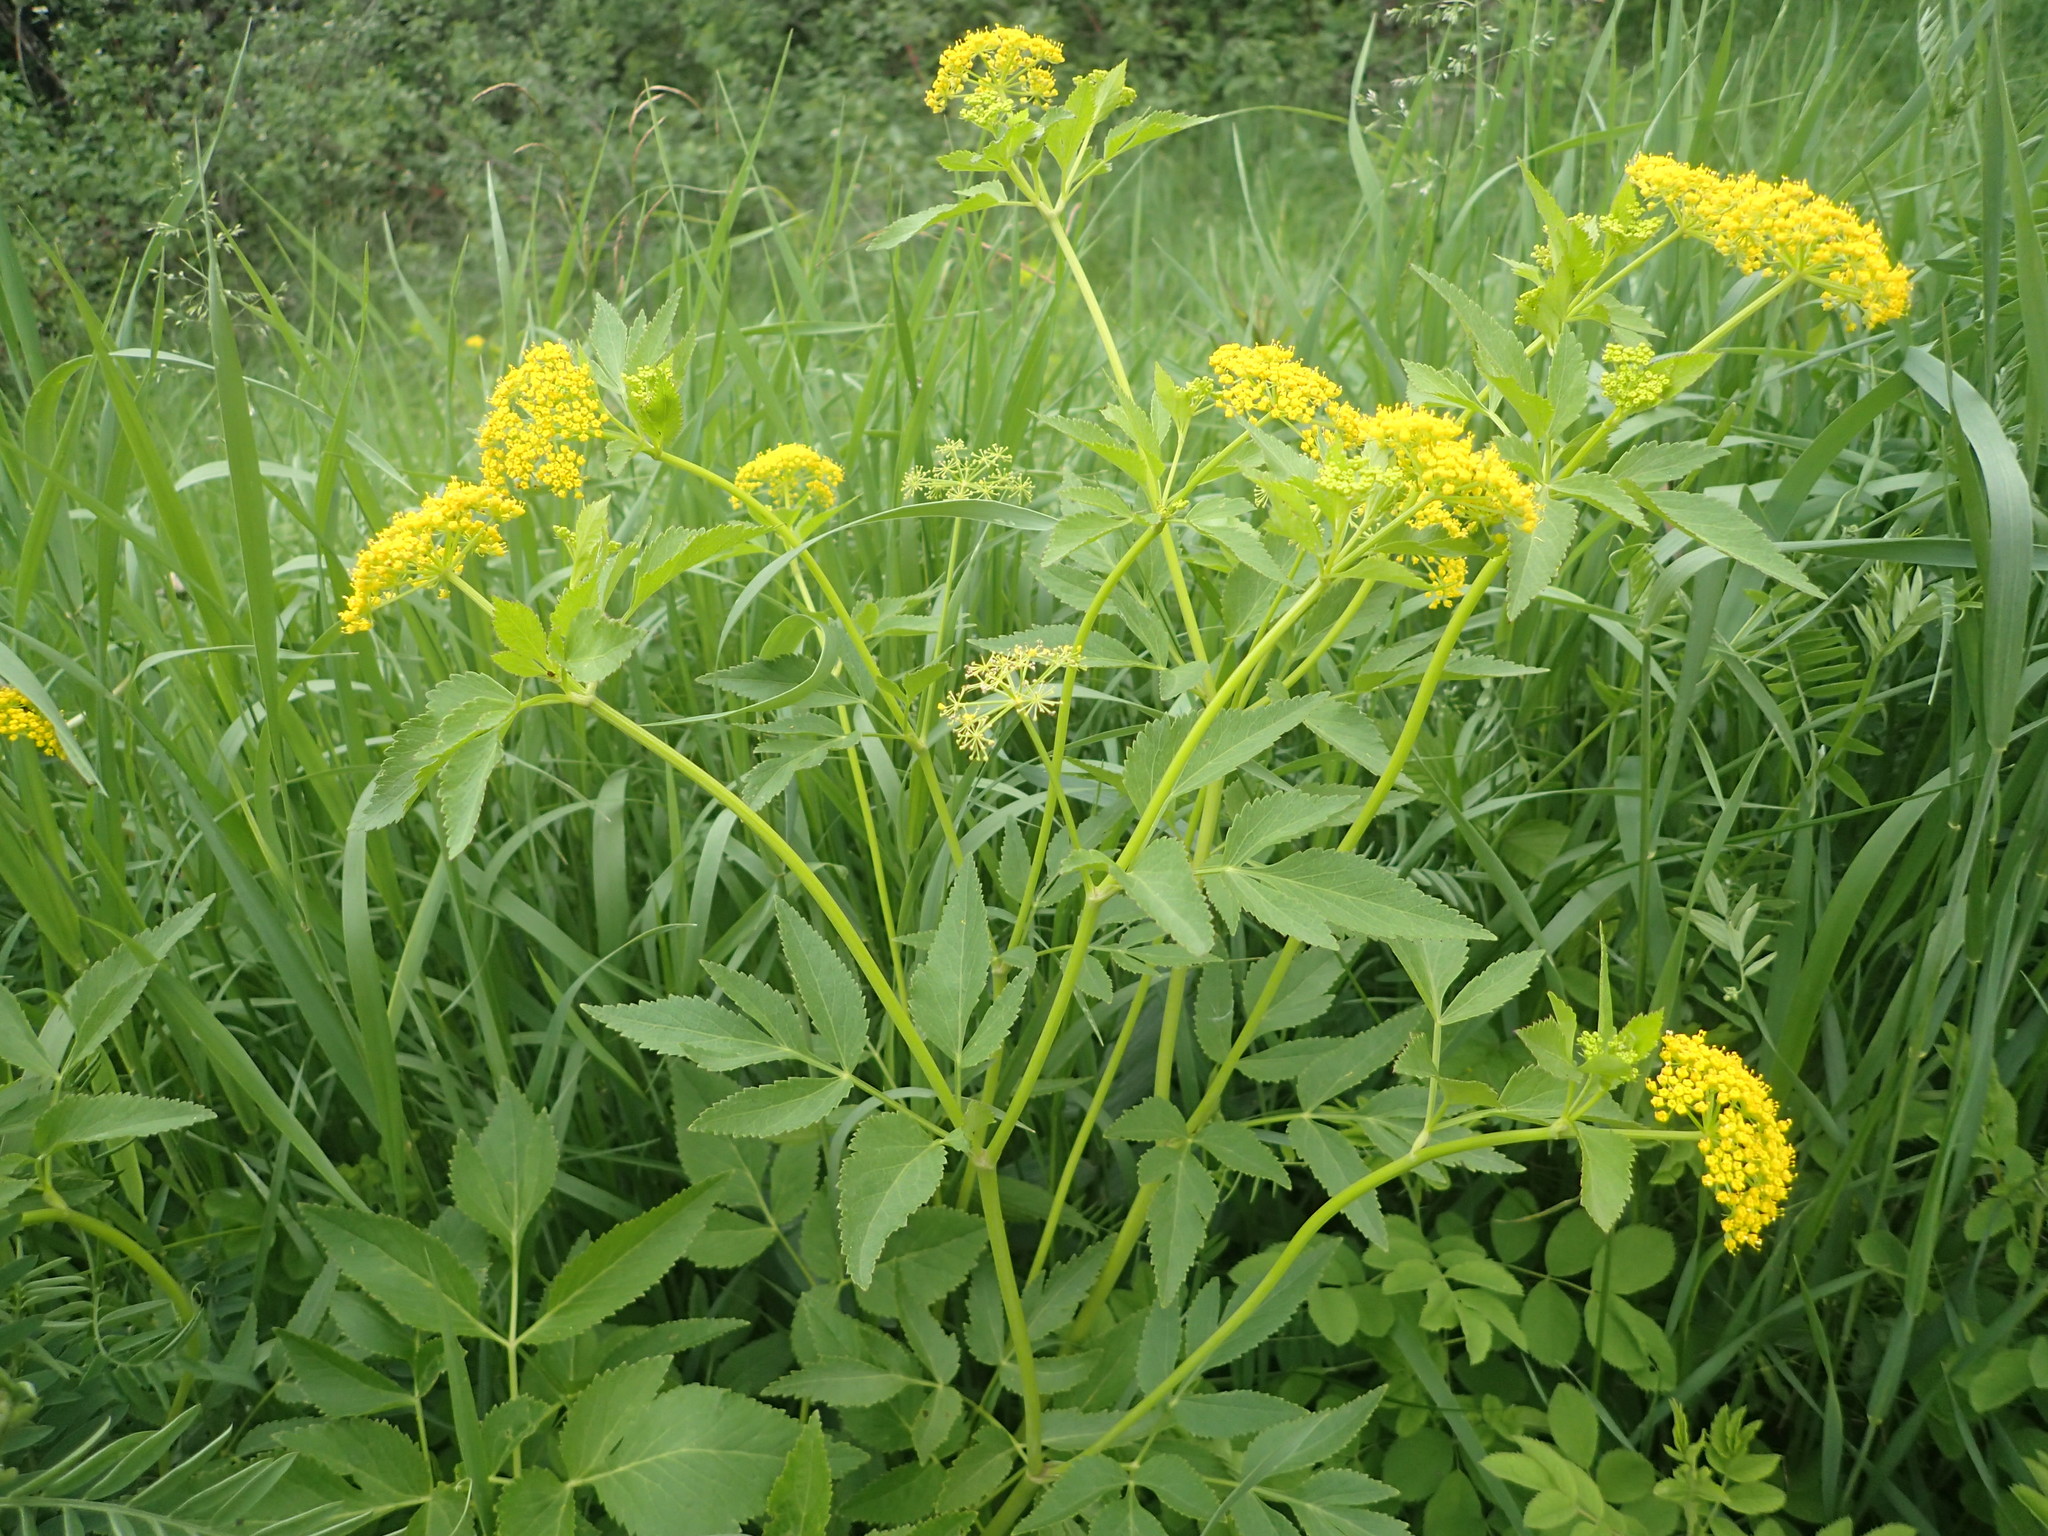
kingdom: Plantae
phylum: Tracheophyta
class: Magnoliopsida
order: Apiales
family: Apiaceae
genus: Zizia
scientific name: Zizia aurea
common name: Golden alexanders
